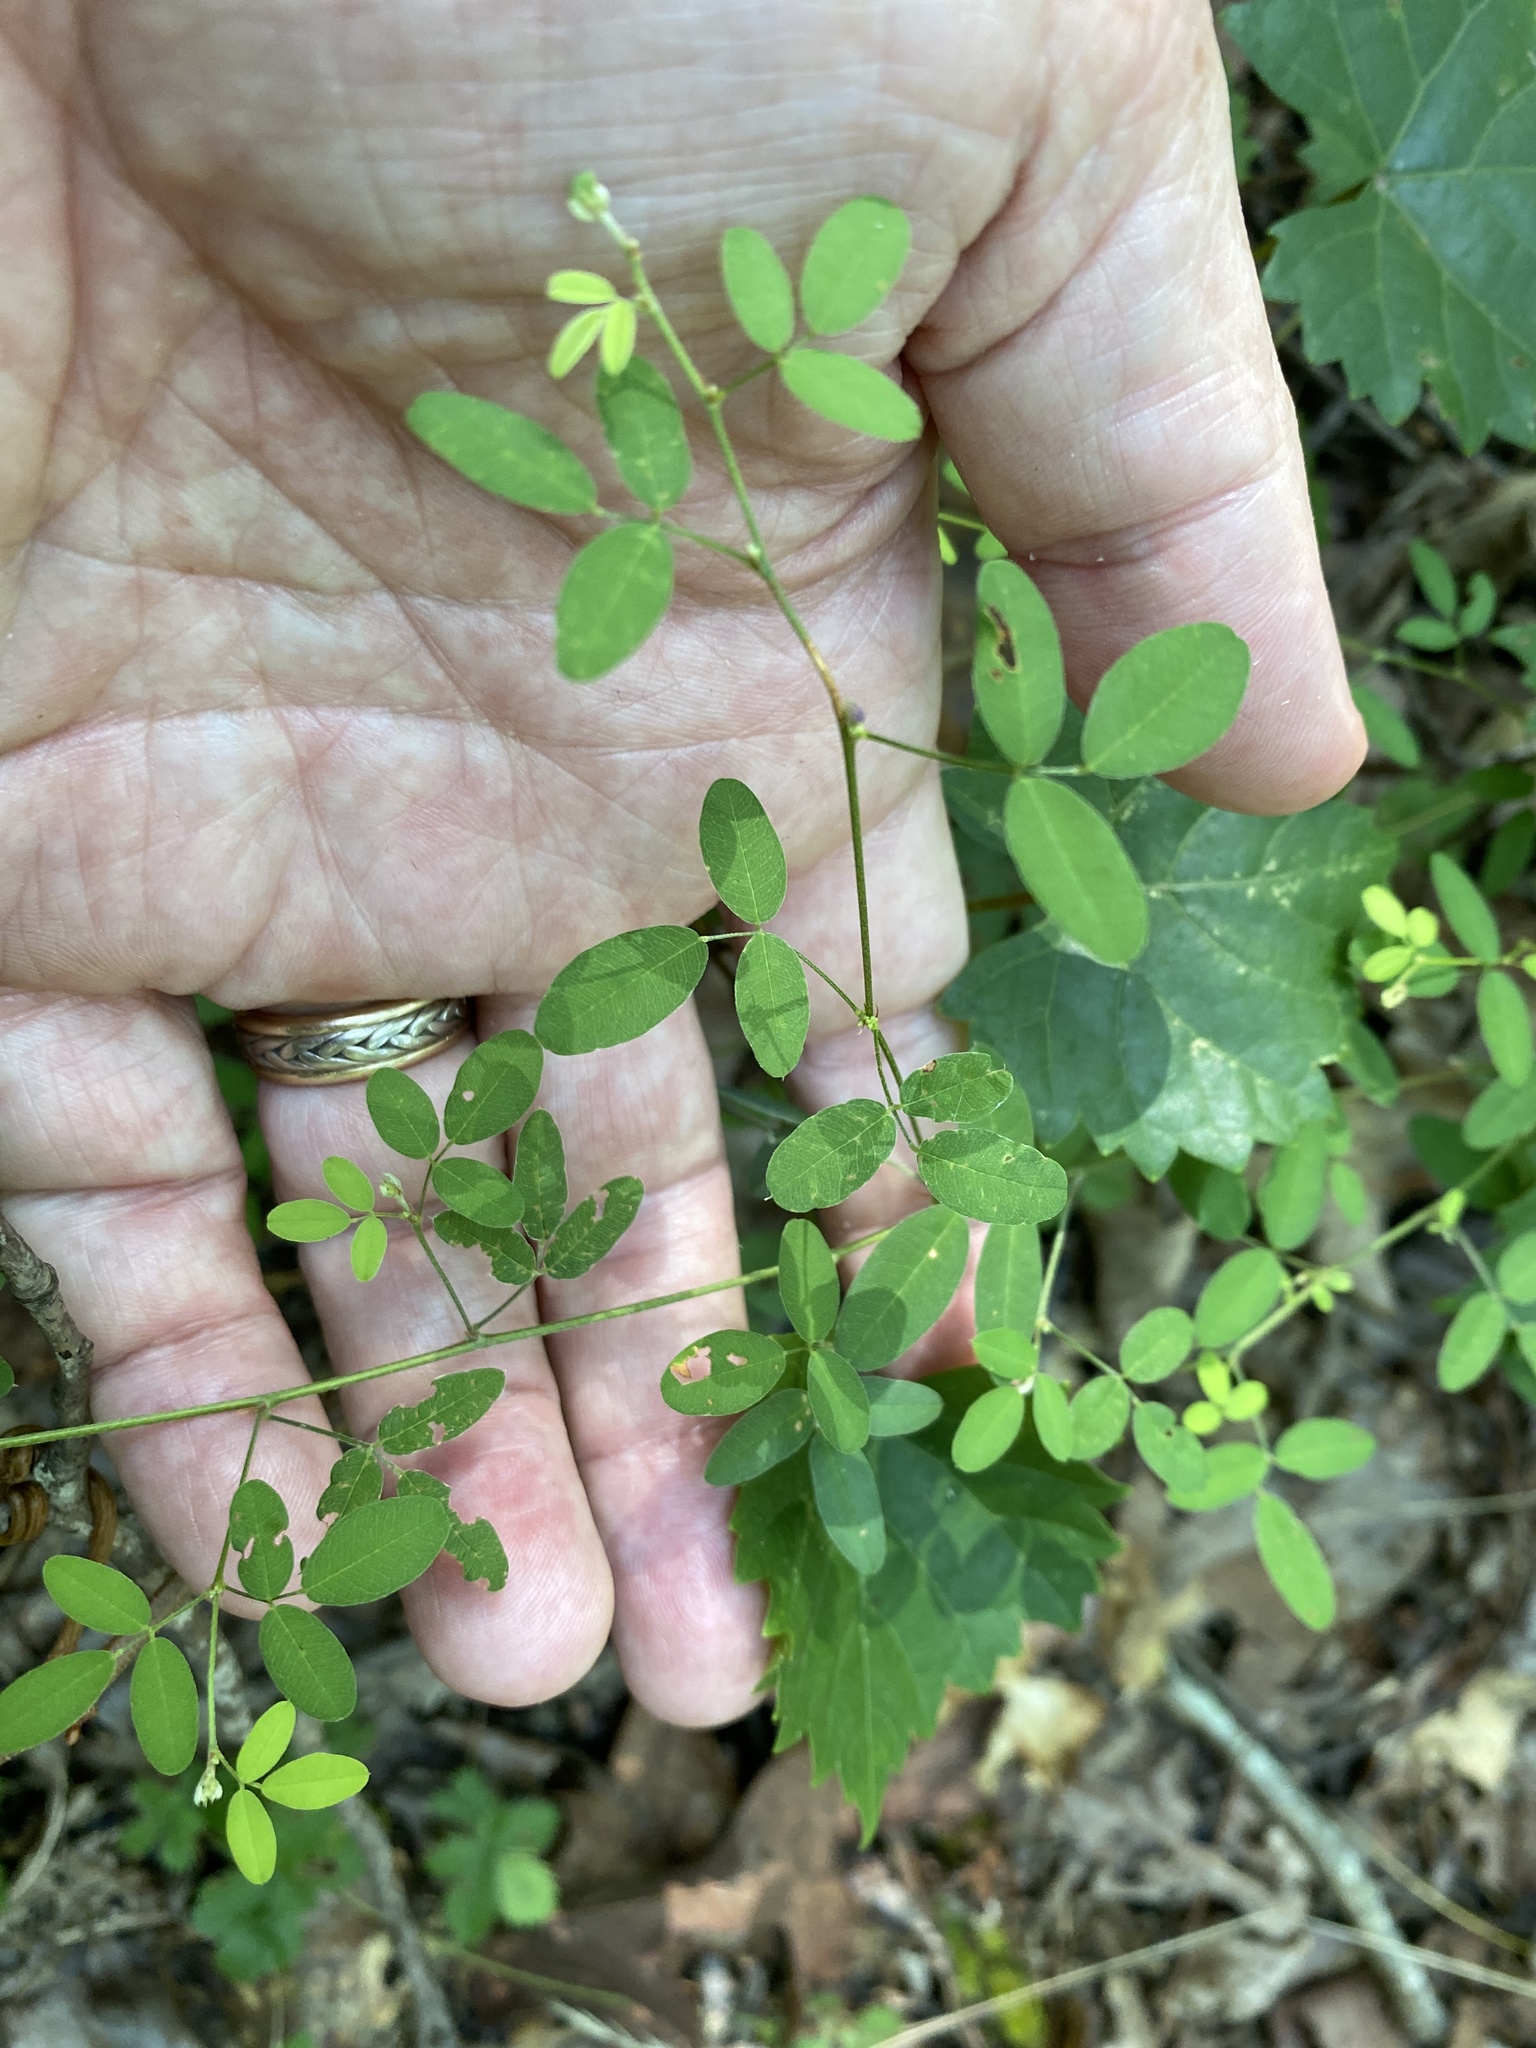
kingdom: Plantae
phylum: Tracheophyta
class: Magnoliopsida
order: Fabales
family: Fabaceae
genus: Lespedeza
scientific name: Lespedeza repens
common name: Creeping bush-clover
